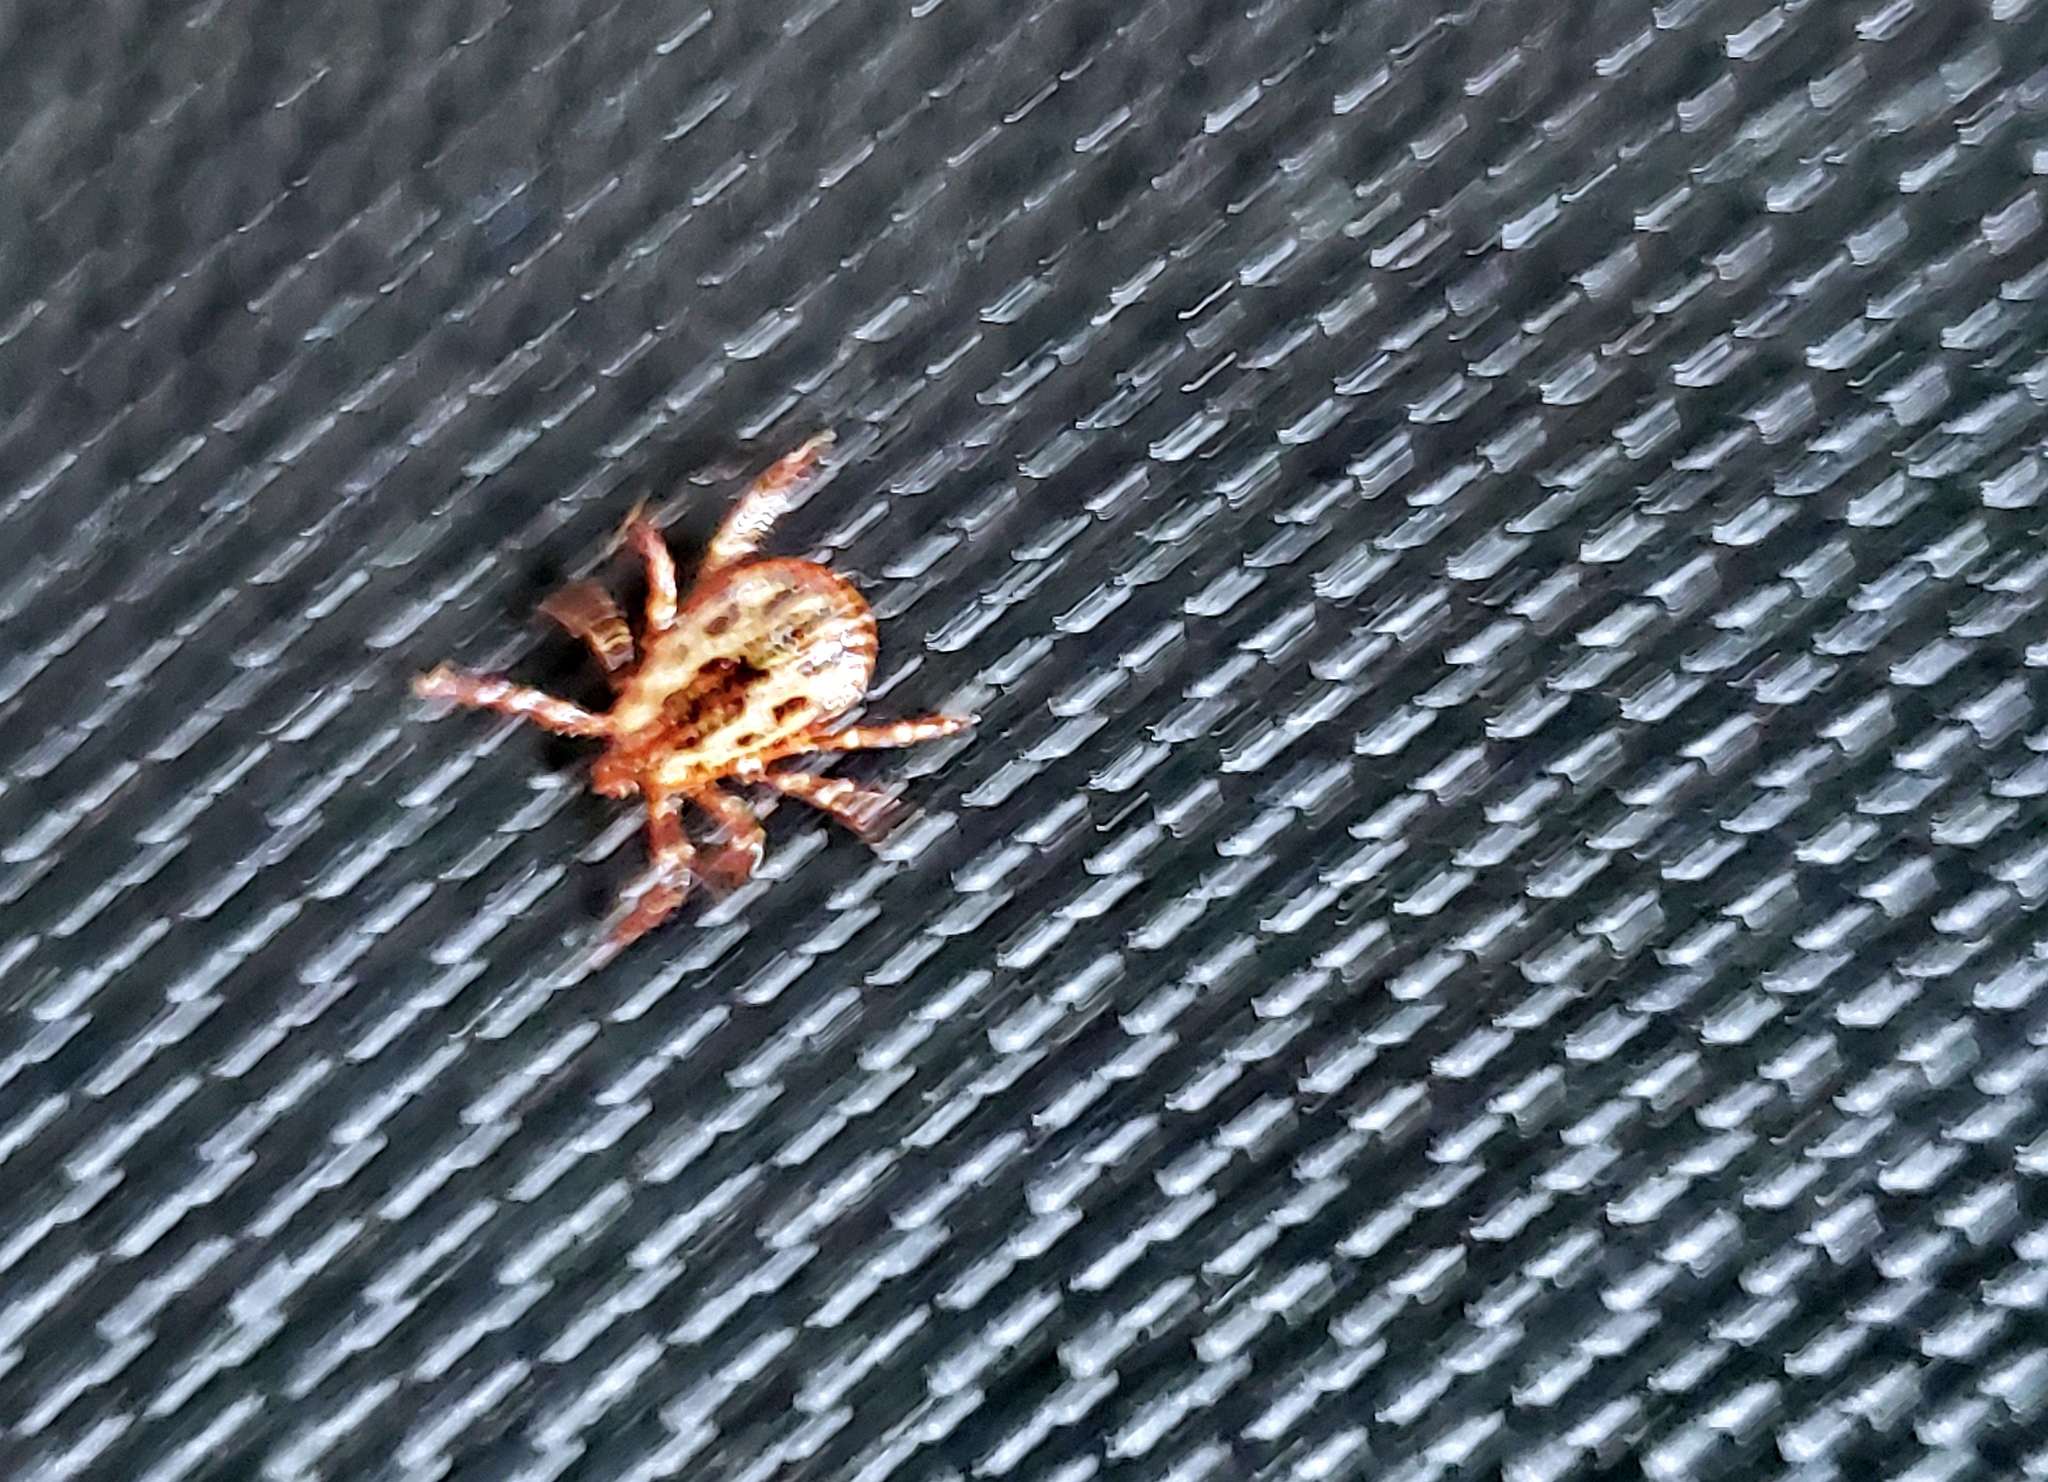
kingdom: Animalia
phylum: Arthropoda
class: Arachnida
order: Ixodida
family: Ixodidae
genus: Dermacentor
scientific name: Dermacentor variabilis
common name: American dog tick
